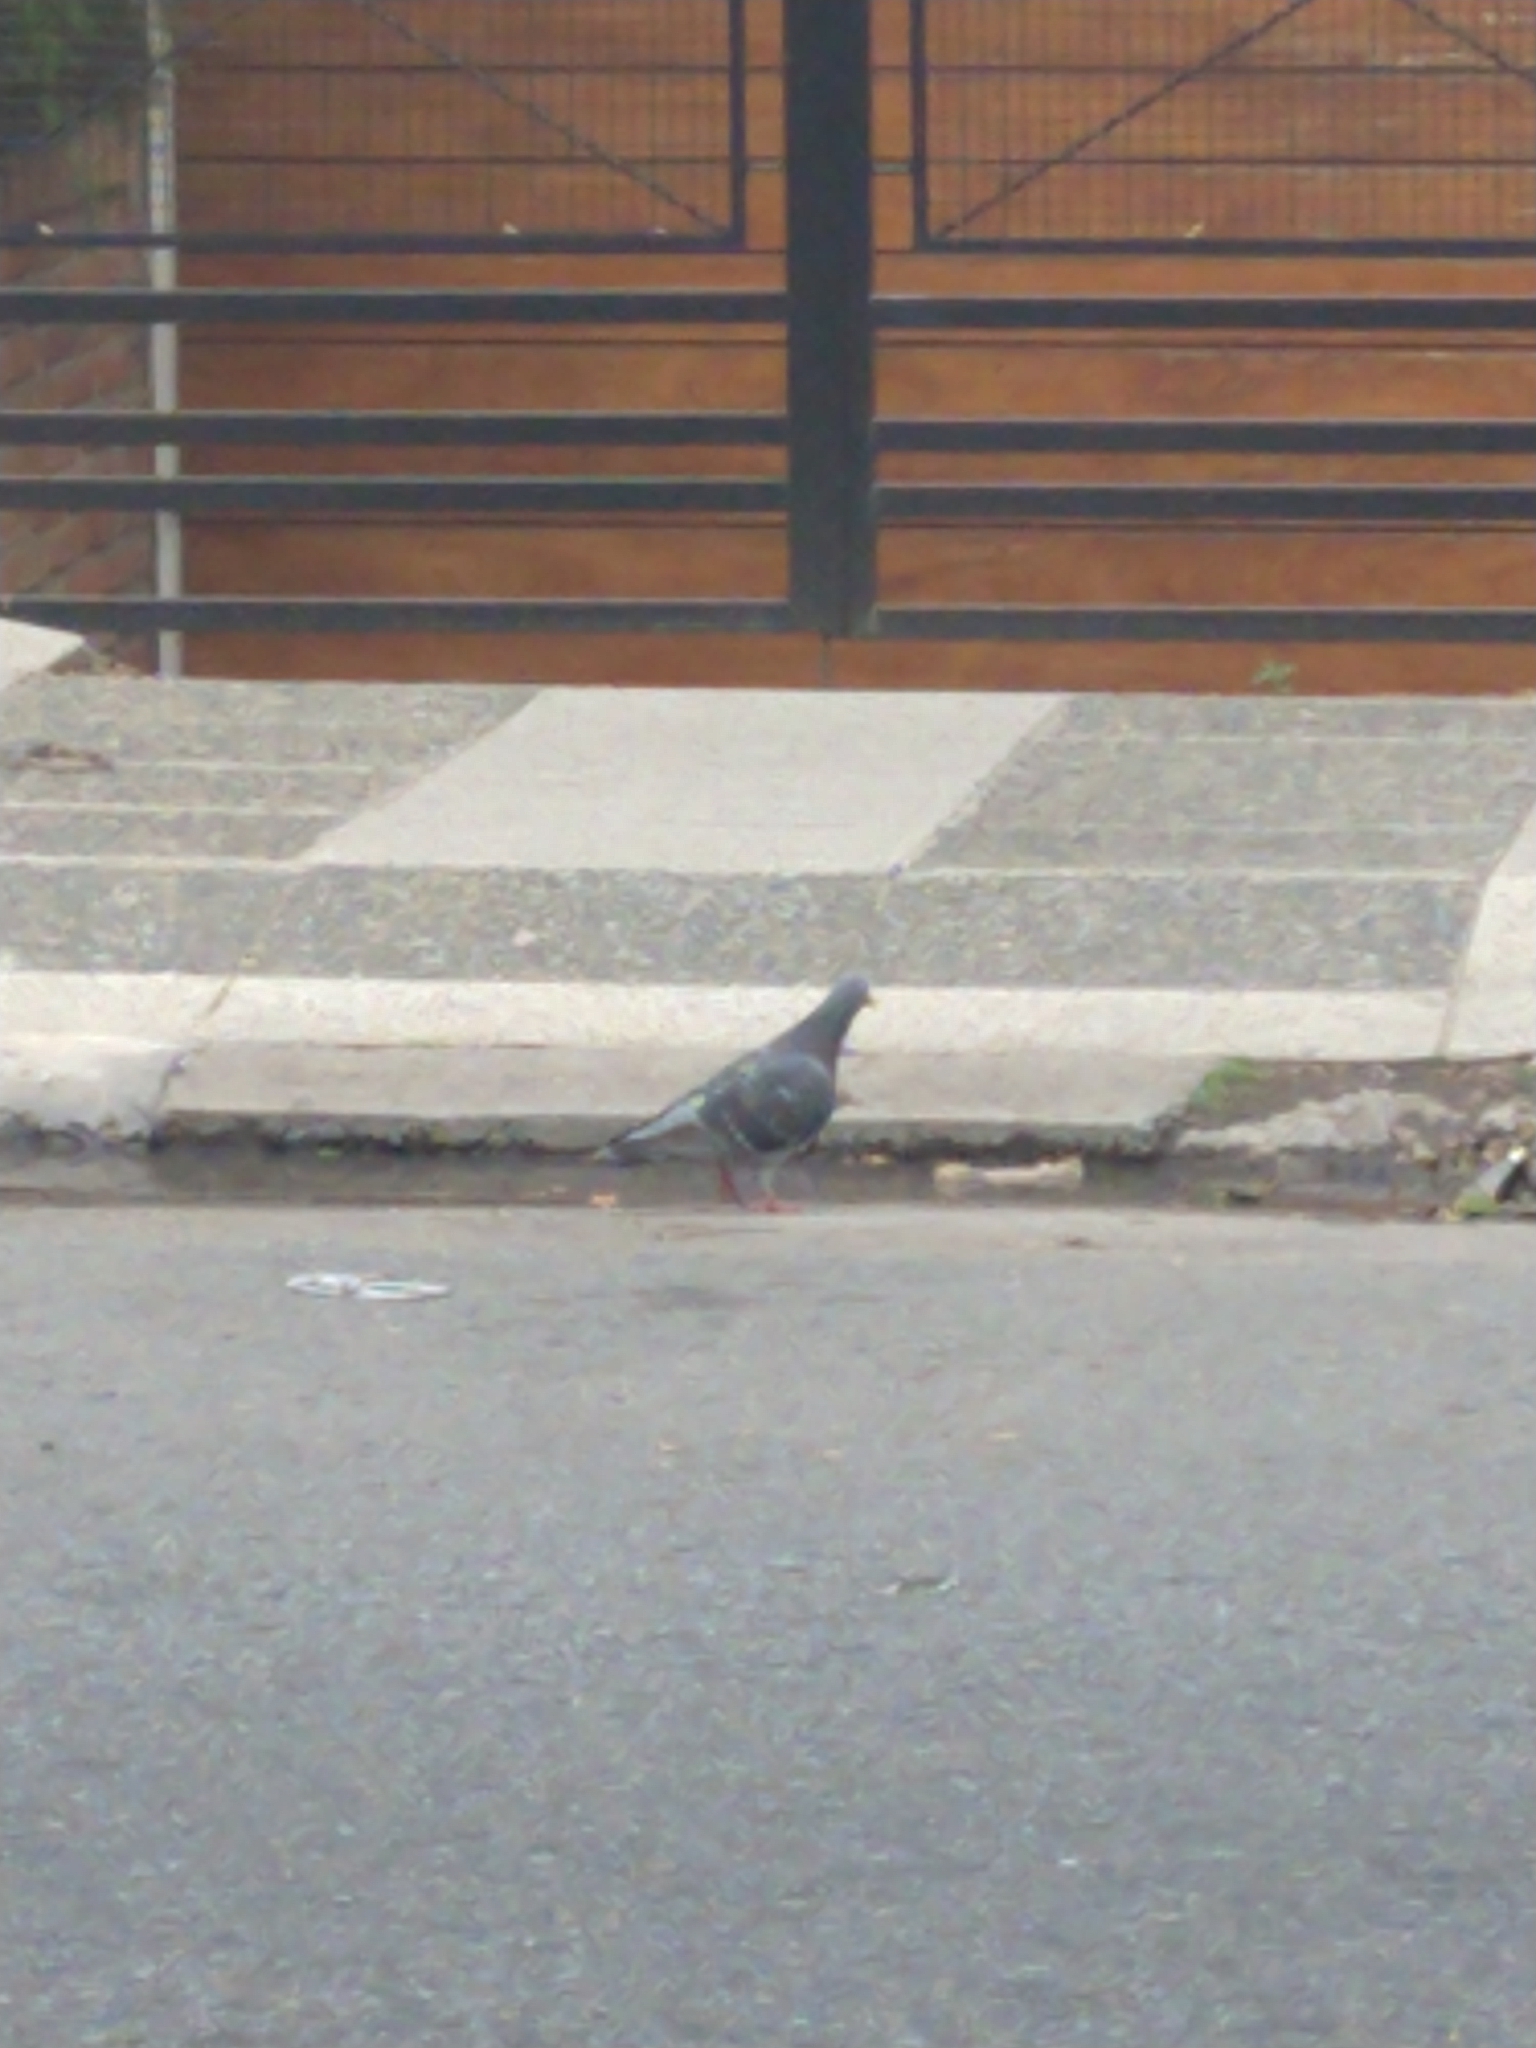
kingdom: Animalia
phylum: Chordata
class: Aves
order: Columbiformes
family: Columbidae
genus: Columba
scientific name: Columba livia
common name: Rock pigeon
